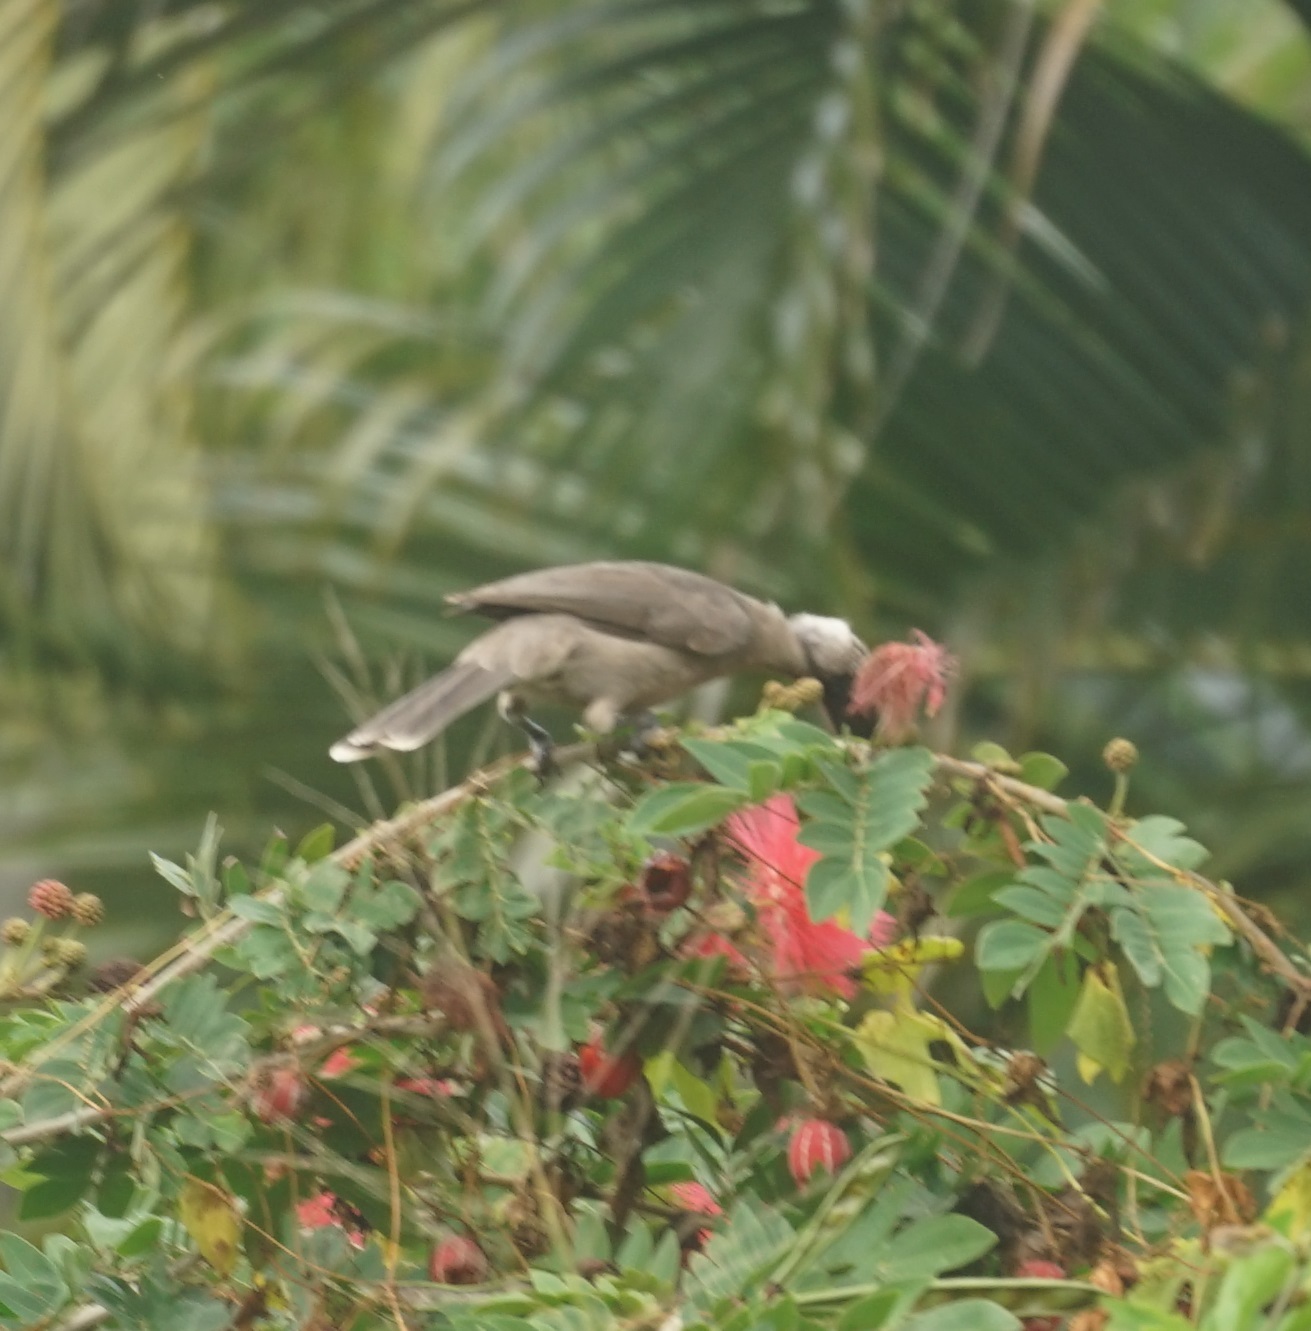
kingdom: Animalia
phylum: Chordata
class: Aves
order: Passeriformes
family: Meliphagidae
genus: Philemon
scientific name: Philemon yorki
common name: Hornbill friarbird
